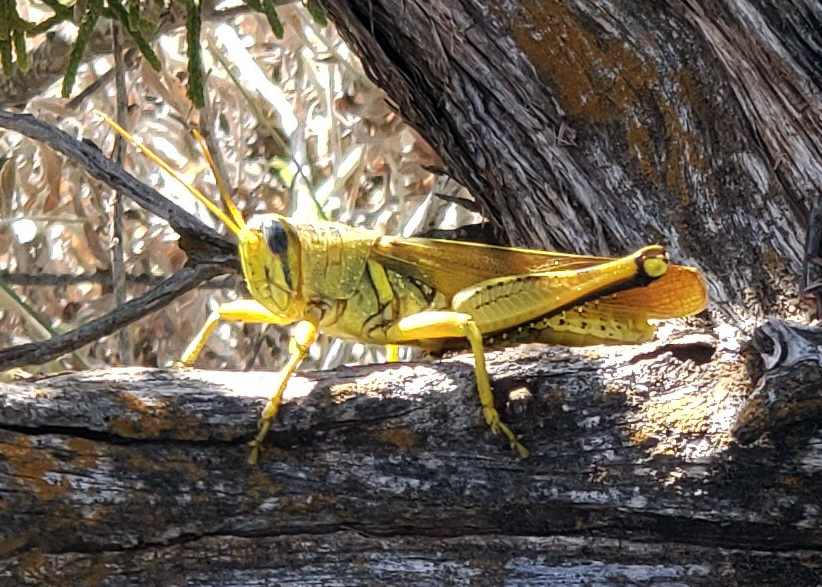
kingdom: Animalia
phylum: Arthropoda
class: Insecta
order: Orthoptera
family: Acrididae
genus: Schistocerca
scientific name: Schistocerca lineata
